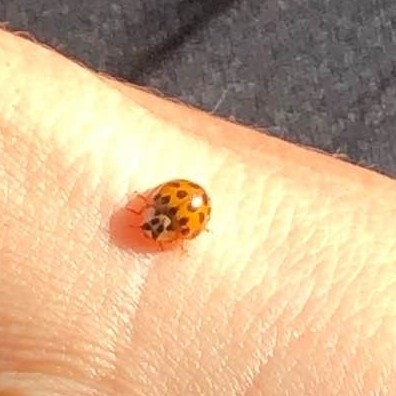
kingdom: Animalia
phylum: Arthropoda
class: Insecta
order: Coleoptera
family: Coccinellidae
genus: Harmonia
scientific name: Harmonia axyridis
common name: Harlequin ladybird
